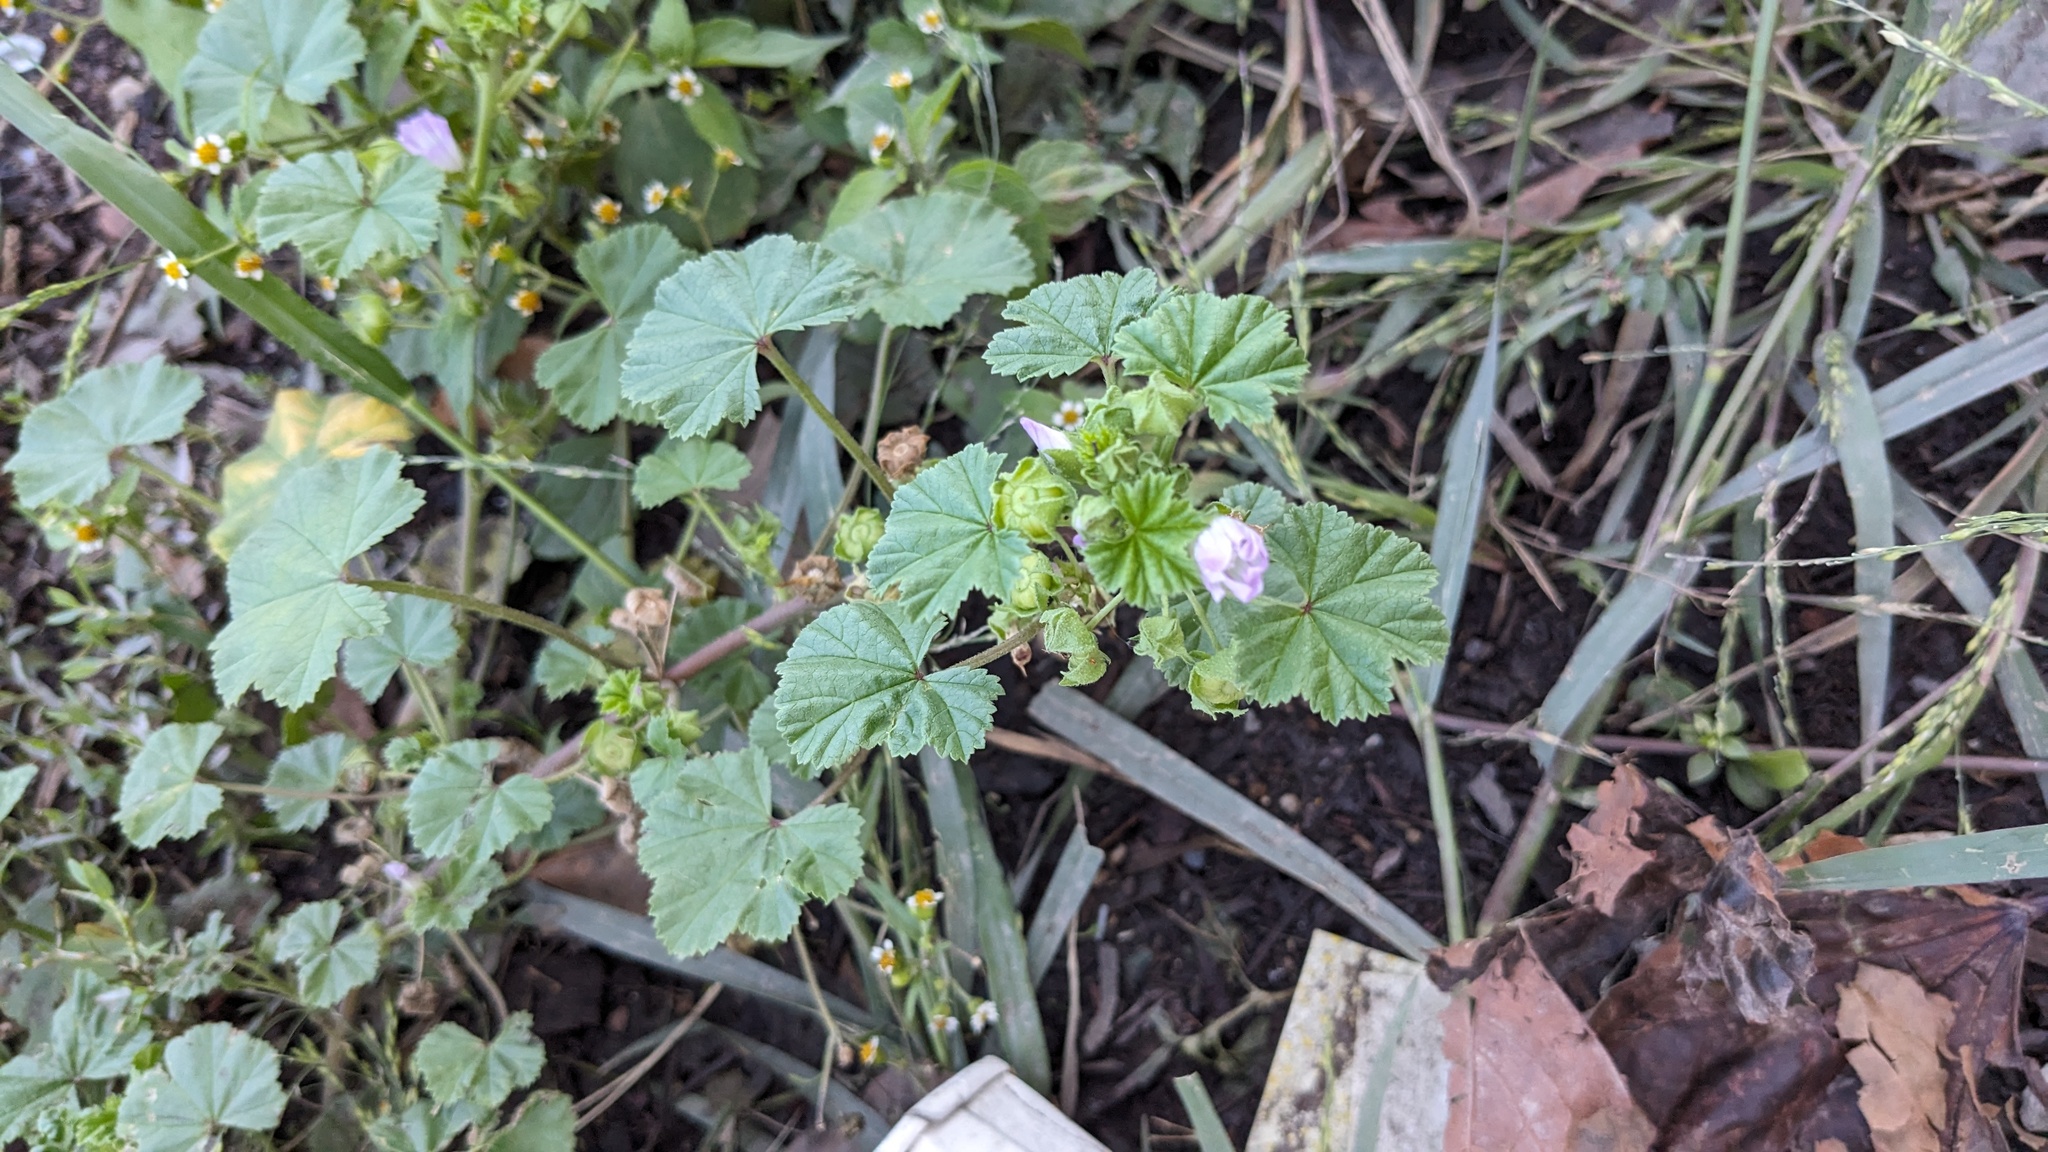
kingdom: Plantae
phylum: Tracheophyta
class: Magnoliopsida
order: Malvales
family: Malvaceae
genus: Malva
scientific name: Malva neglecta
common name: Common mallow
